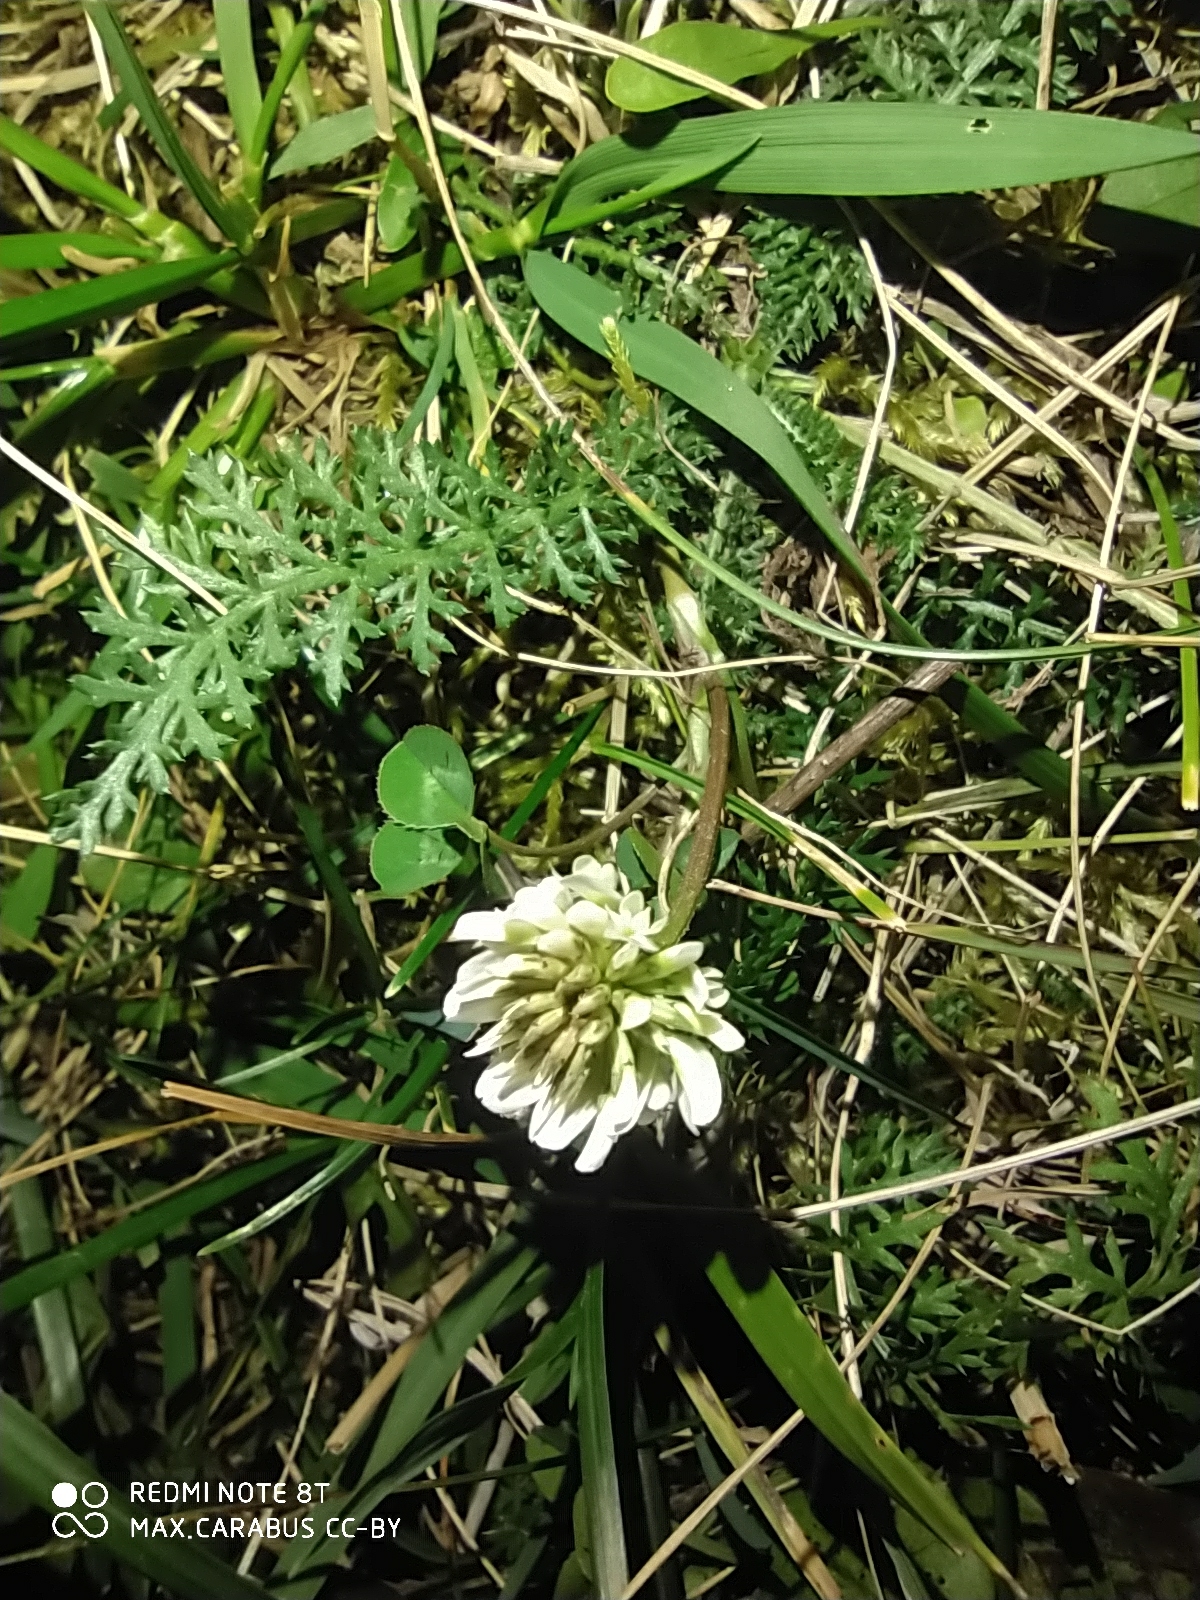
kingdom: Plantae
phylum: Tracheophyta
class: Magnoliopsida
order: Fabales
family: Fabaceae
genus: Trifolium
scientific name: Trifolium repens
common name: White clover
